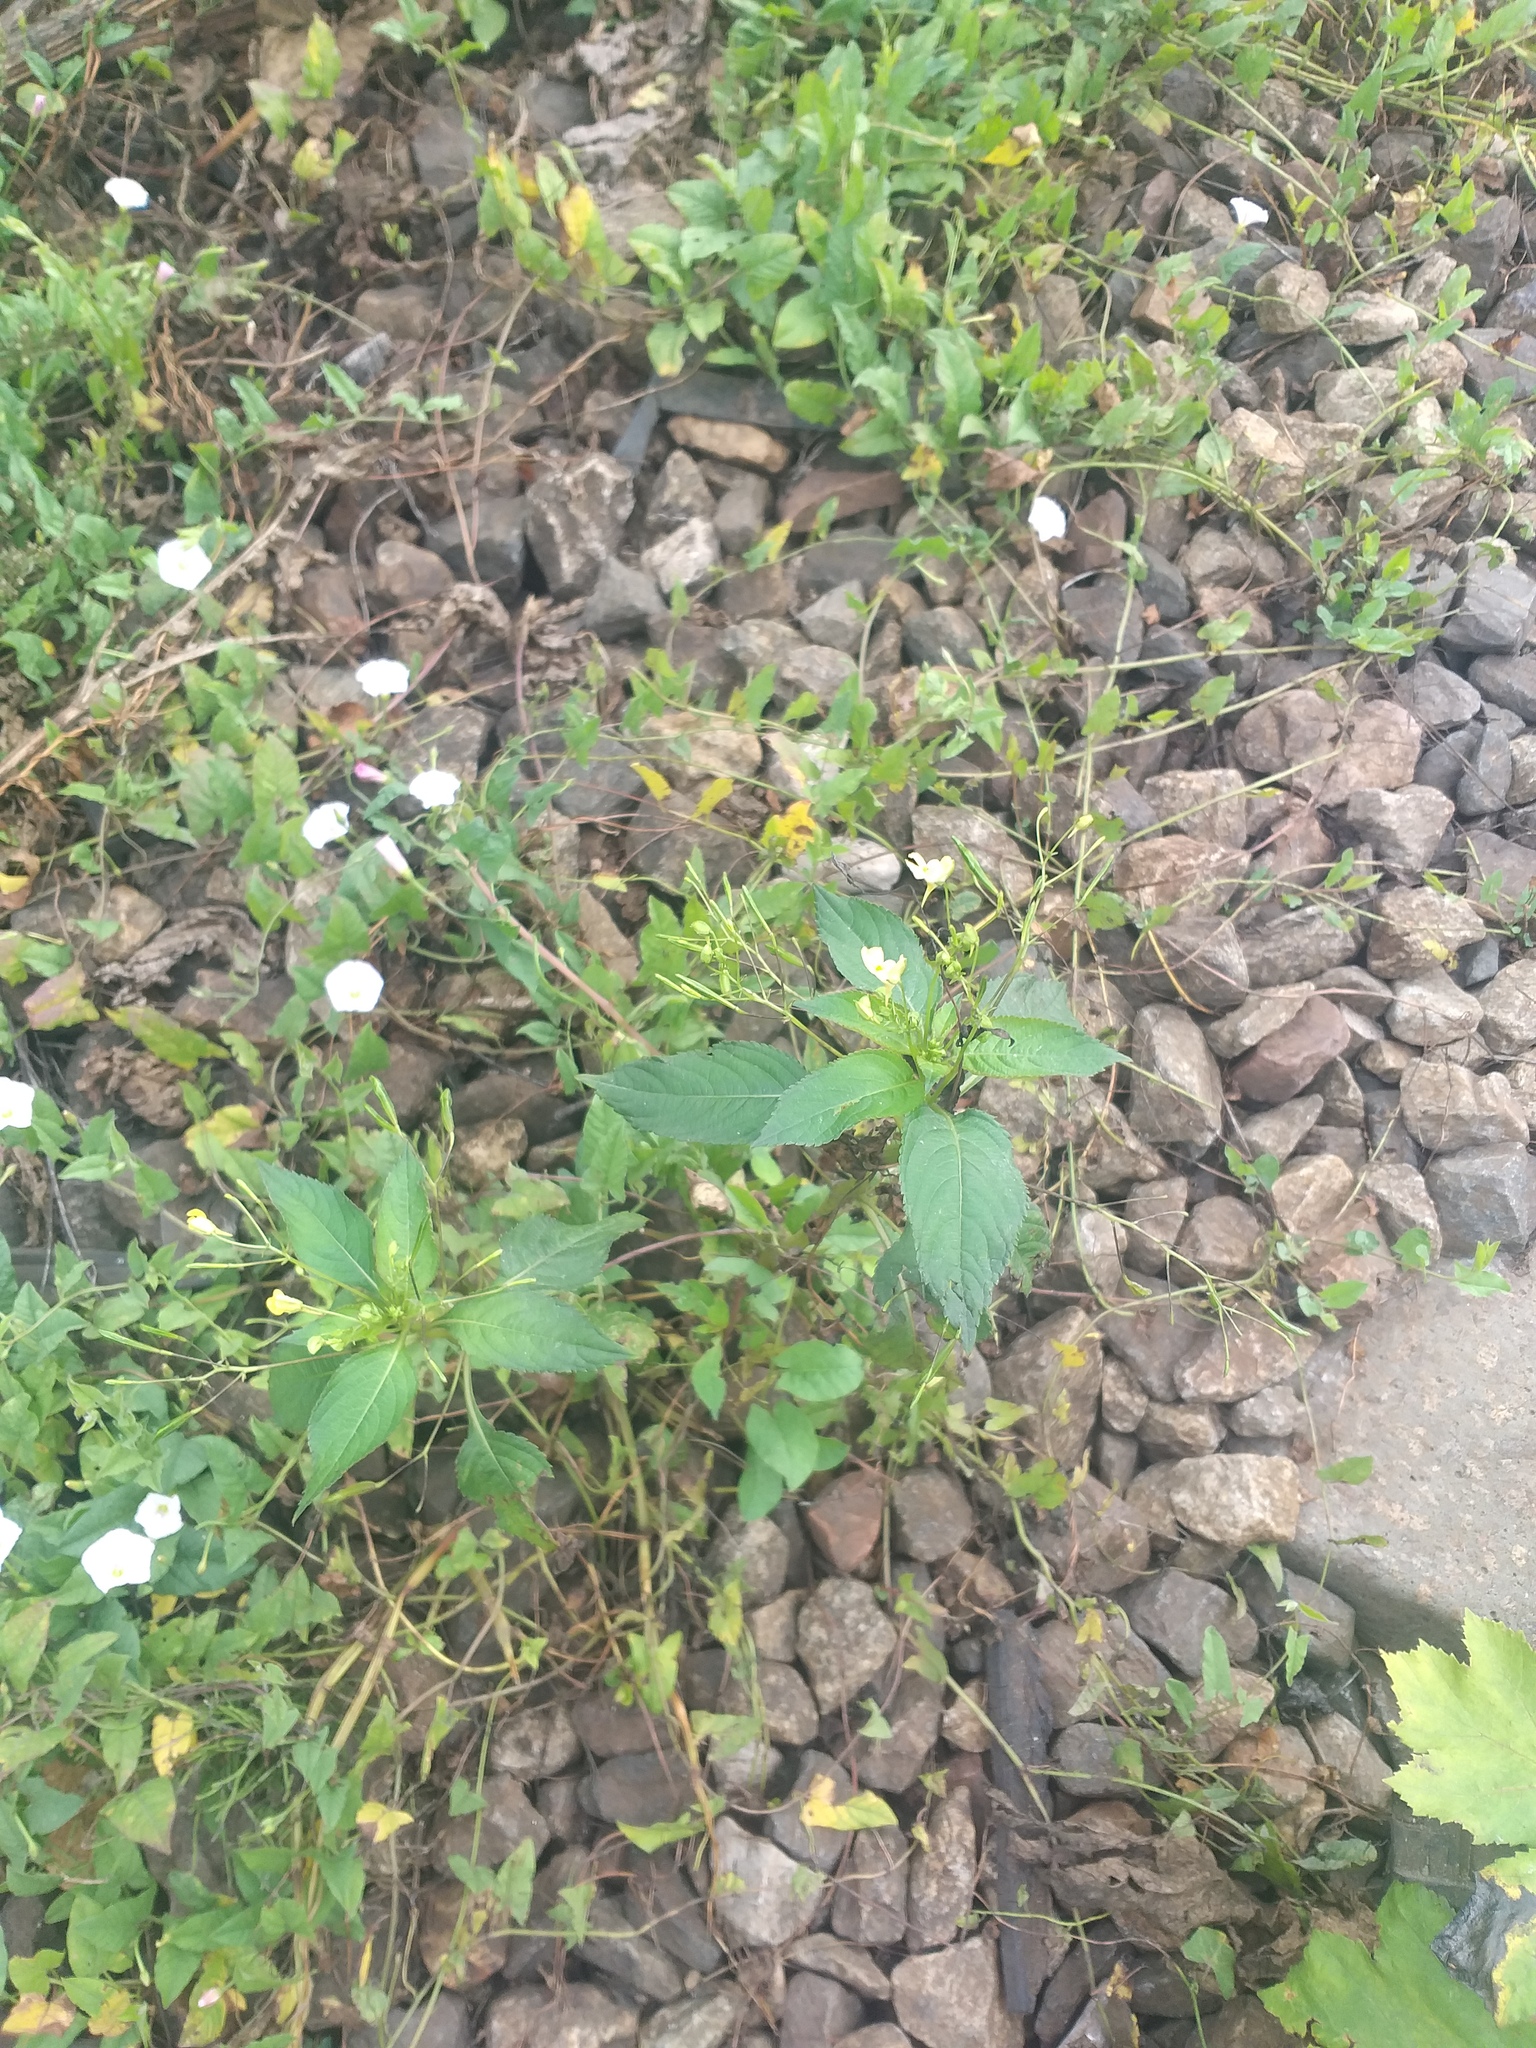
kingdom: Plantae
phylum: Tracheophyta
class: Magnoliopsida
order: Ericales
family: Balsaminaceae
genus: Impatiens
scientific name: Impatiens parviflora
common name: Small balsam
